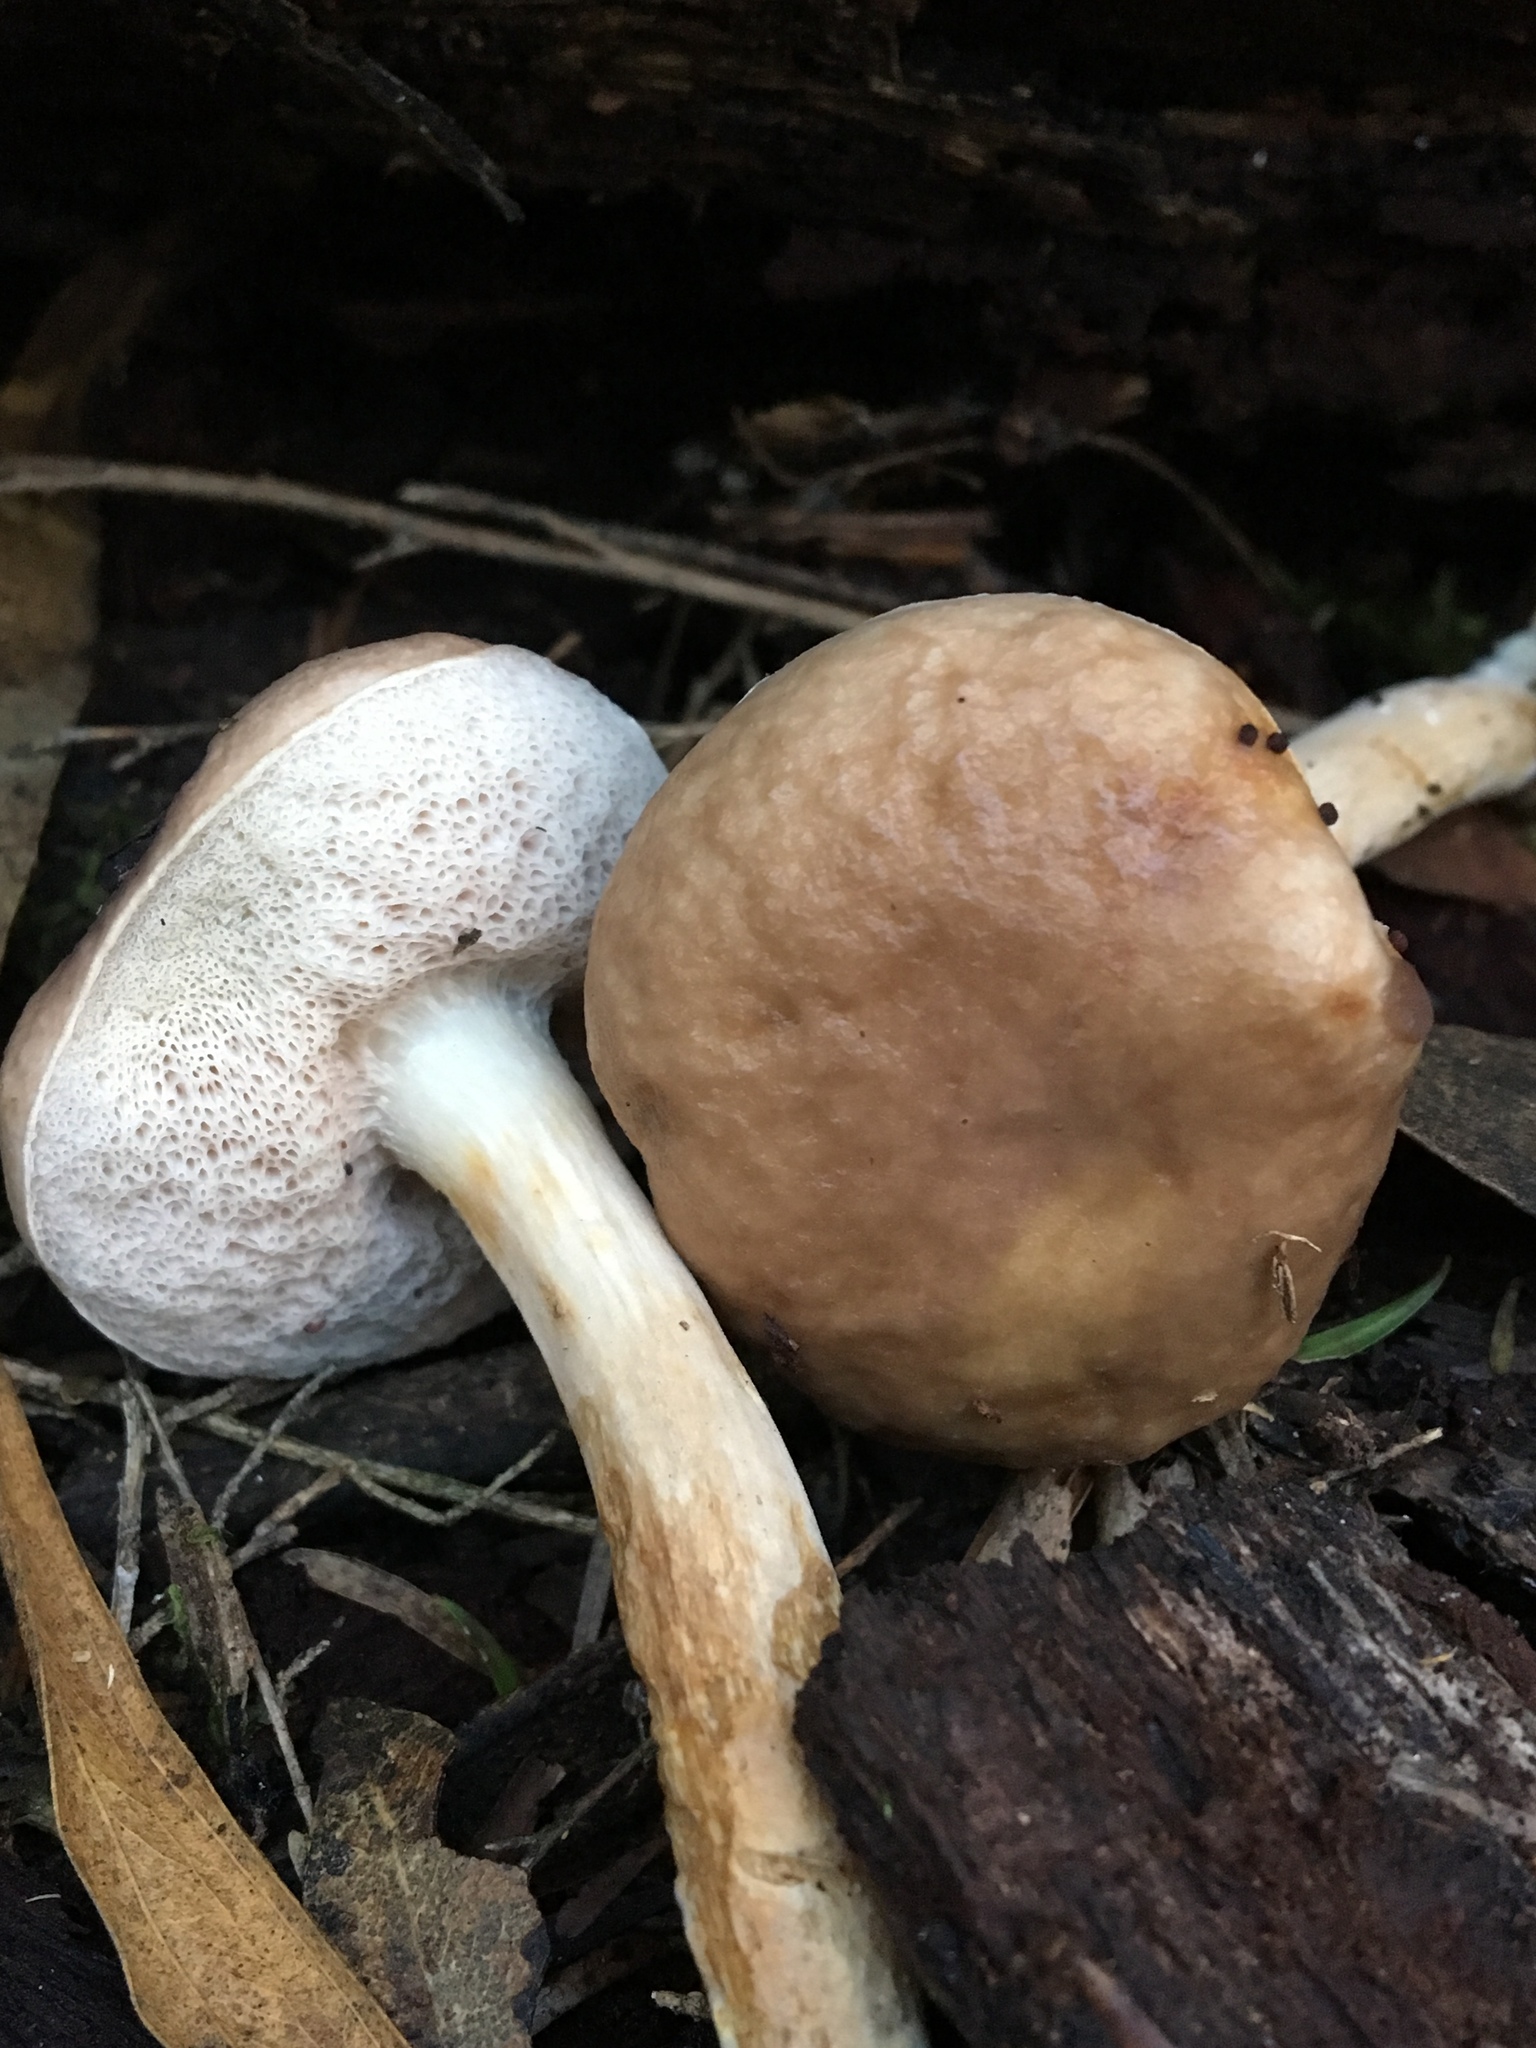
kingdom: Fungi
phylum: Basidiomycota
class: Agaricomycetes
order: Boletales
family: Boletaceae
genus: Fistulinella
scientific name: Fistulinella mollis
